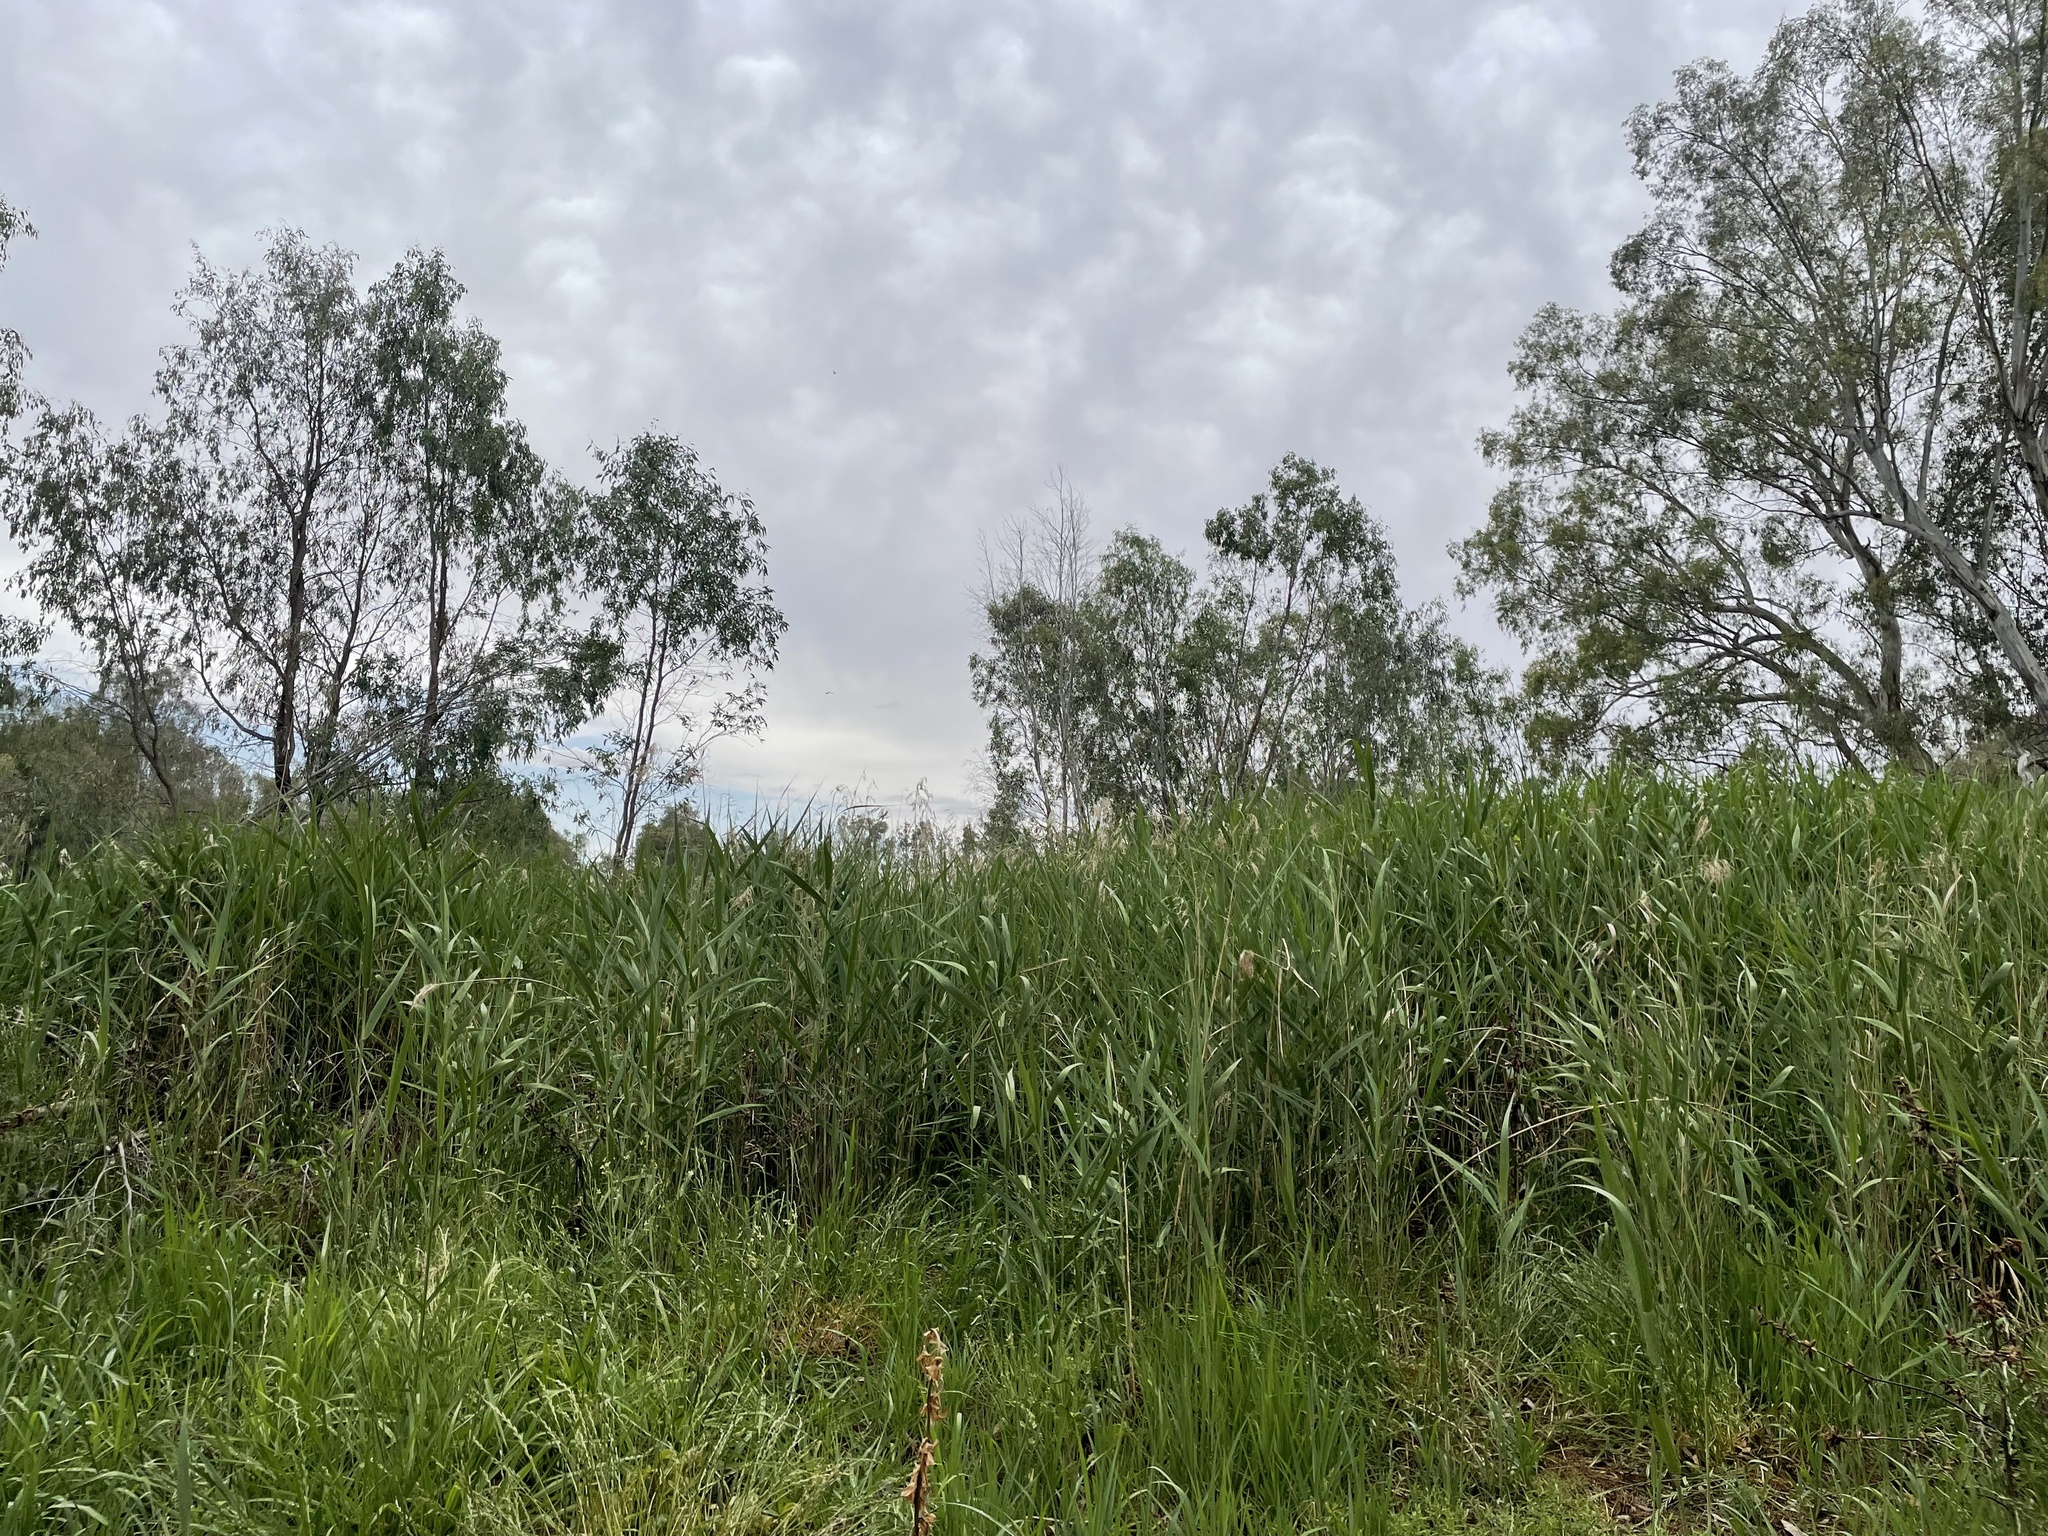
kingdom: Plantae
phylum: Tracheophyta
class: Liliopsida
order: Poales
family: Poaceae
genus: Phragmites
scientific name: Phragmites australis
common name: Common reed
